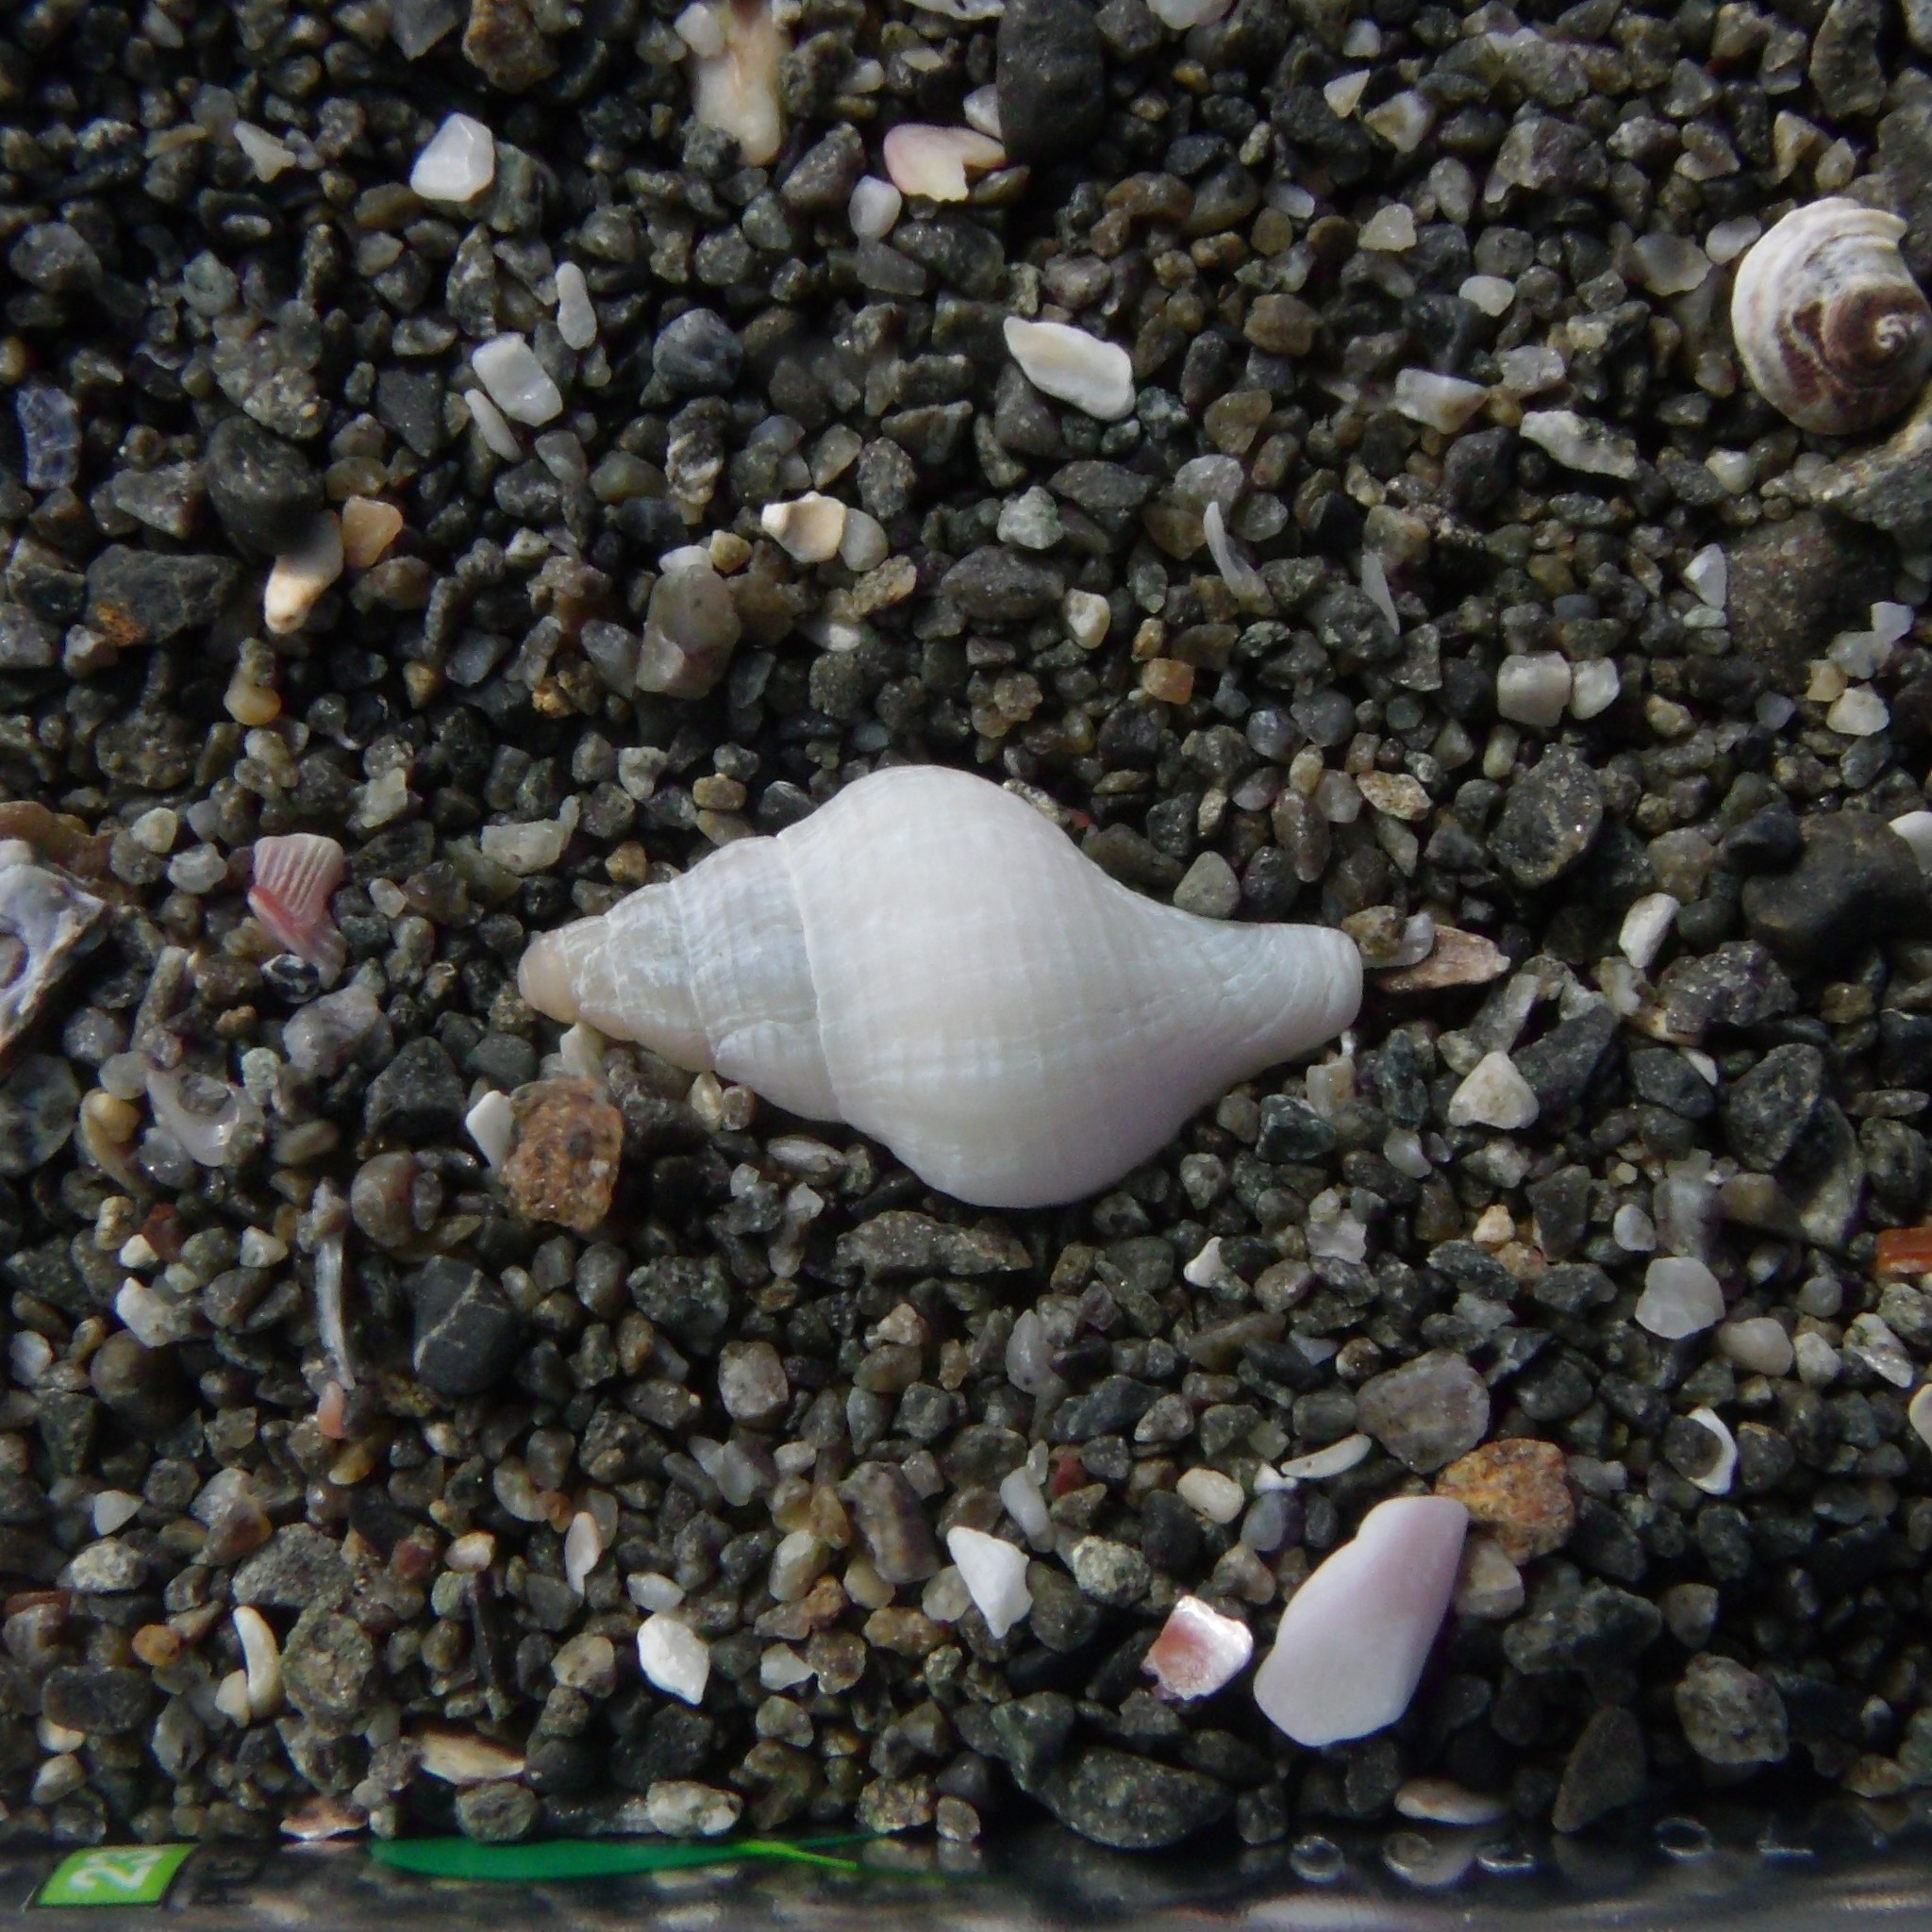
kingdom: Animalia
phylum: Mollusca
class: Gastropoda
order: Neogastropoda
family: Tudiclidae
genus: Buccinulum
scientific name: Buccinulum linea
